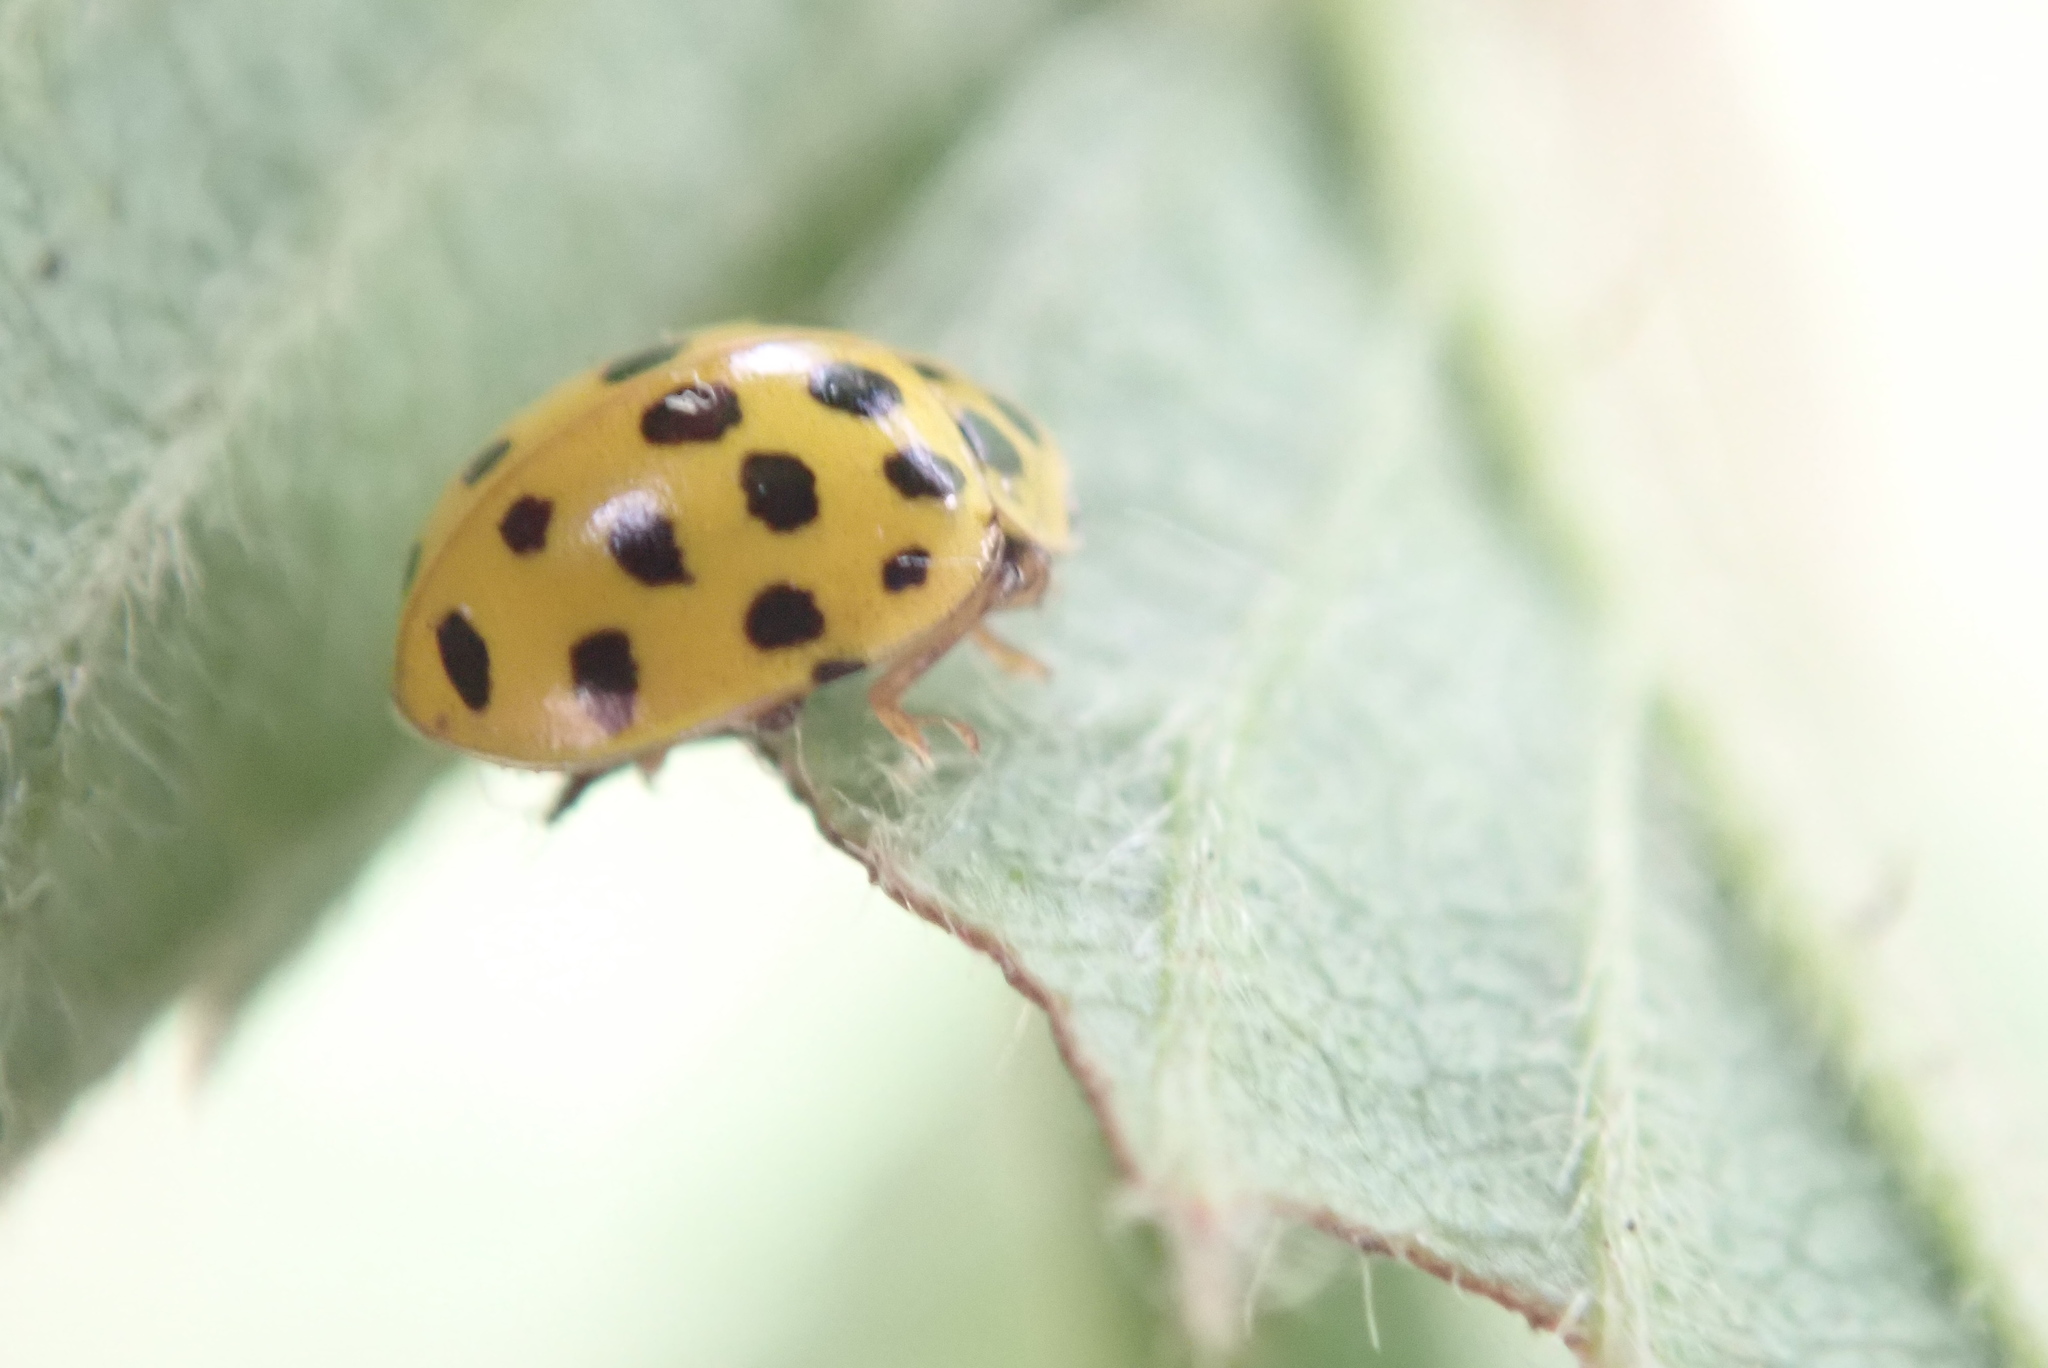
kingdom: Animalia
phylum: Arthropoda
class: Insecta
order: Coleoptera
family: Coccinellidae
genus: Psyllobora
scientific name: Psyllobora vigintiduopunctata
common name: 22-spot ladybird
